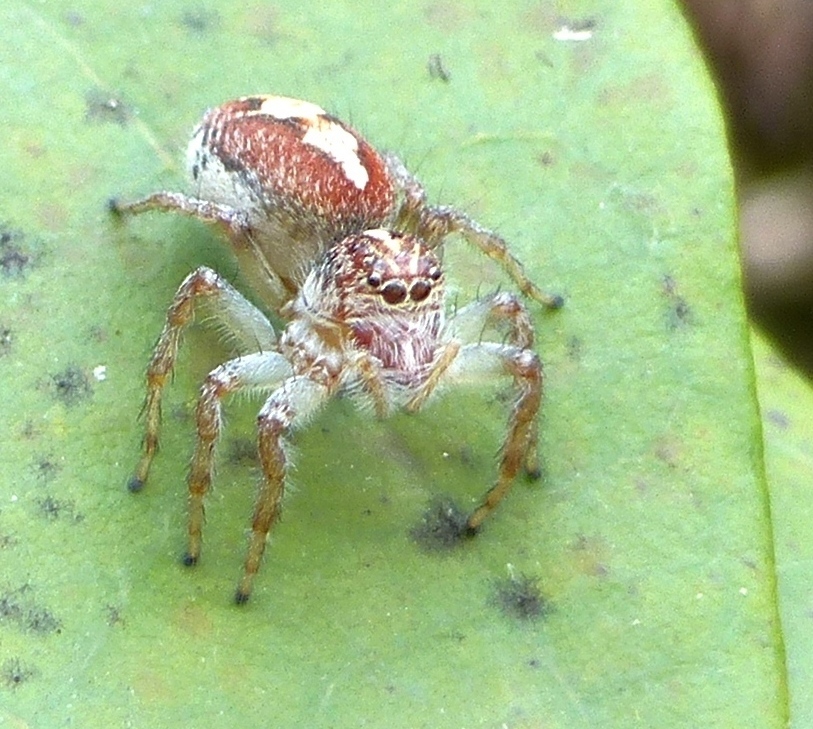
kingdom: Animalia
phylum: Arthropoda
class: Arachnida
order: Araneae
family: Salticidae
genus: Frigga
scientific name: Frigga coronigera
